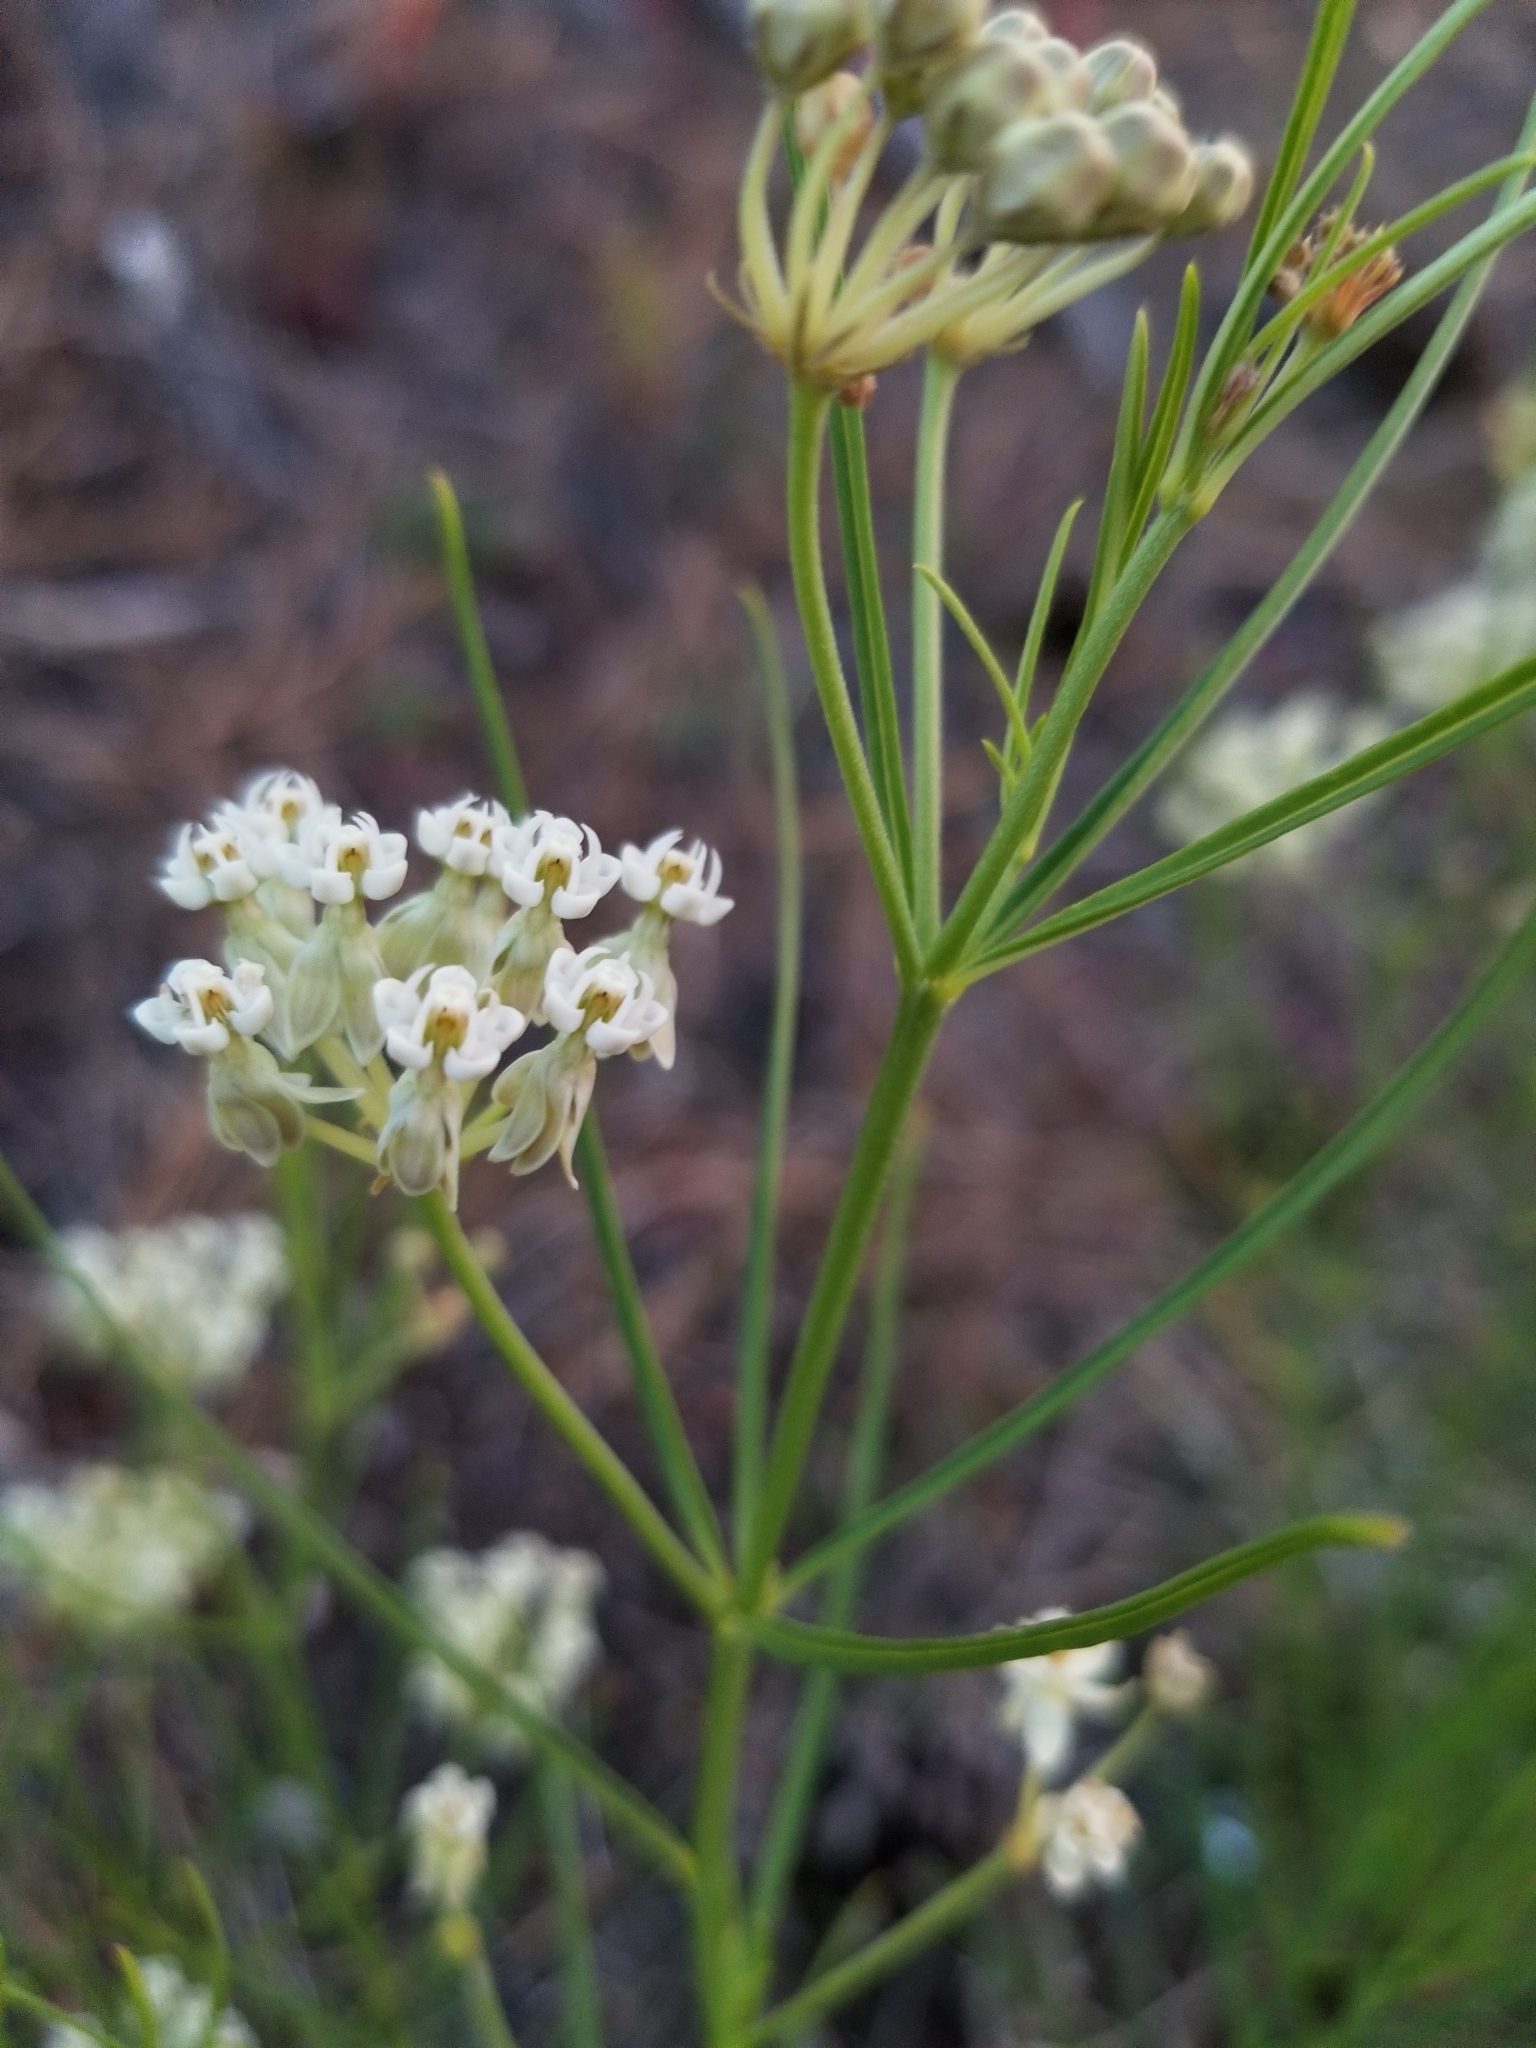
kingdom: Plantae
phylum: Tracheophyta
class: Magnoliopsida
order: Gentianales
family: Apocynaceae
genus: Asclepias
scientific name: Asclepias subverticillata
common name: Horsetail milkweed
